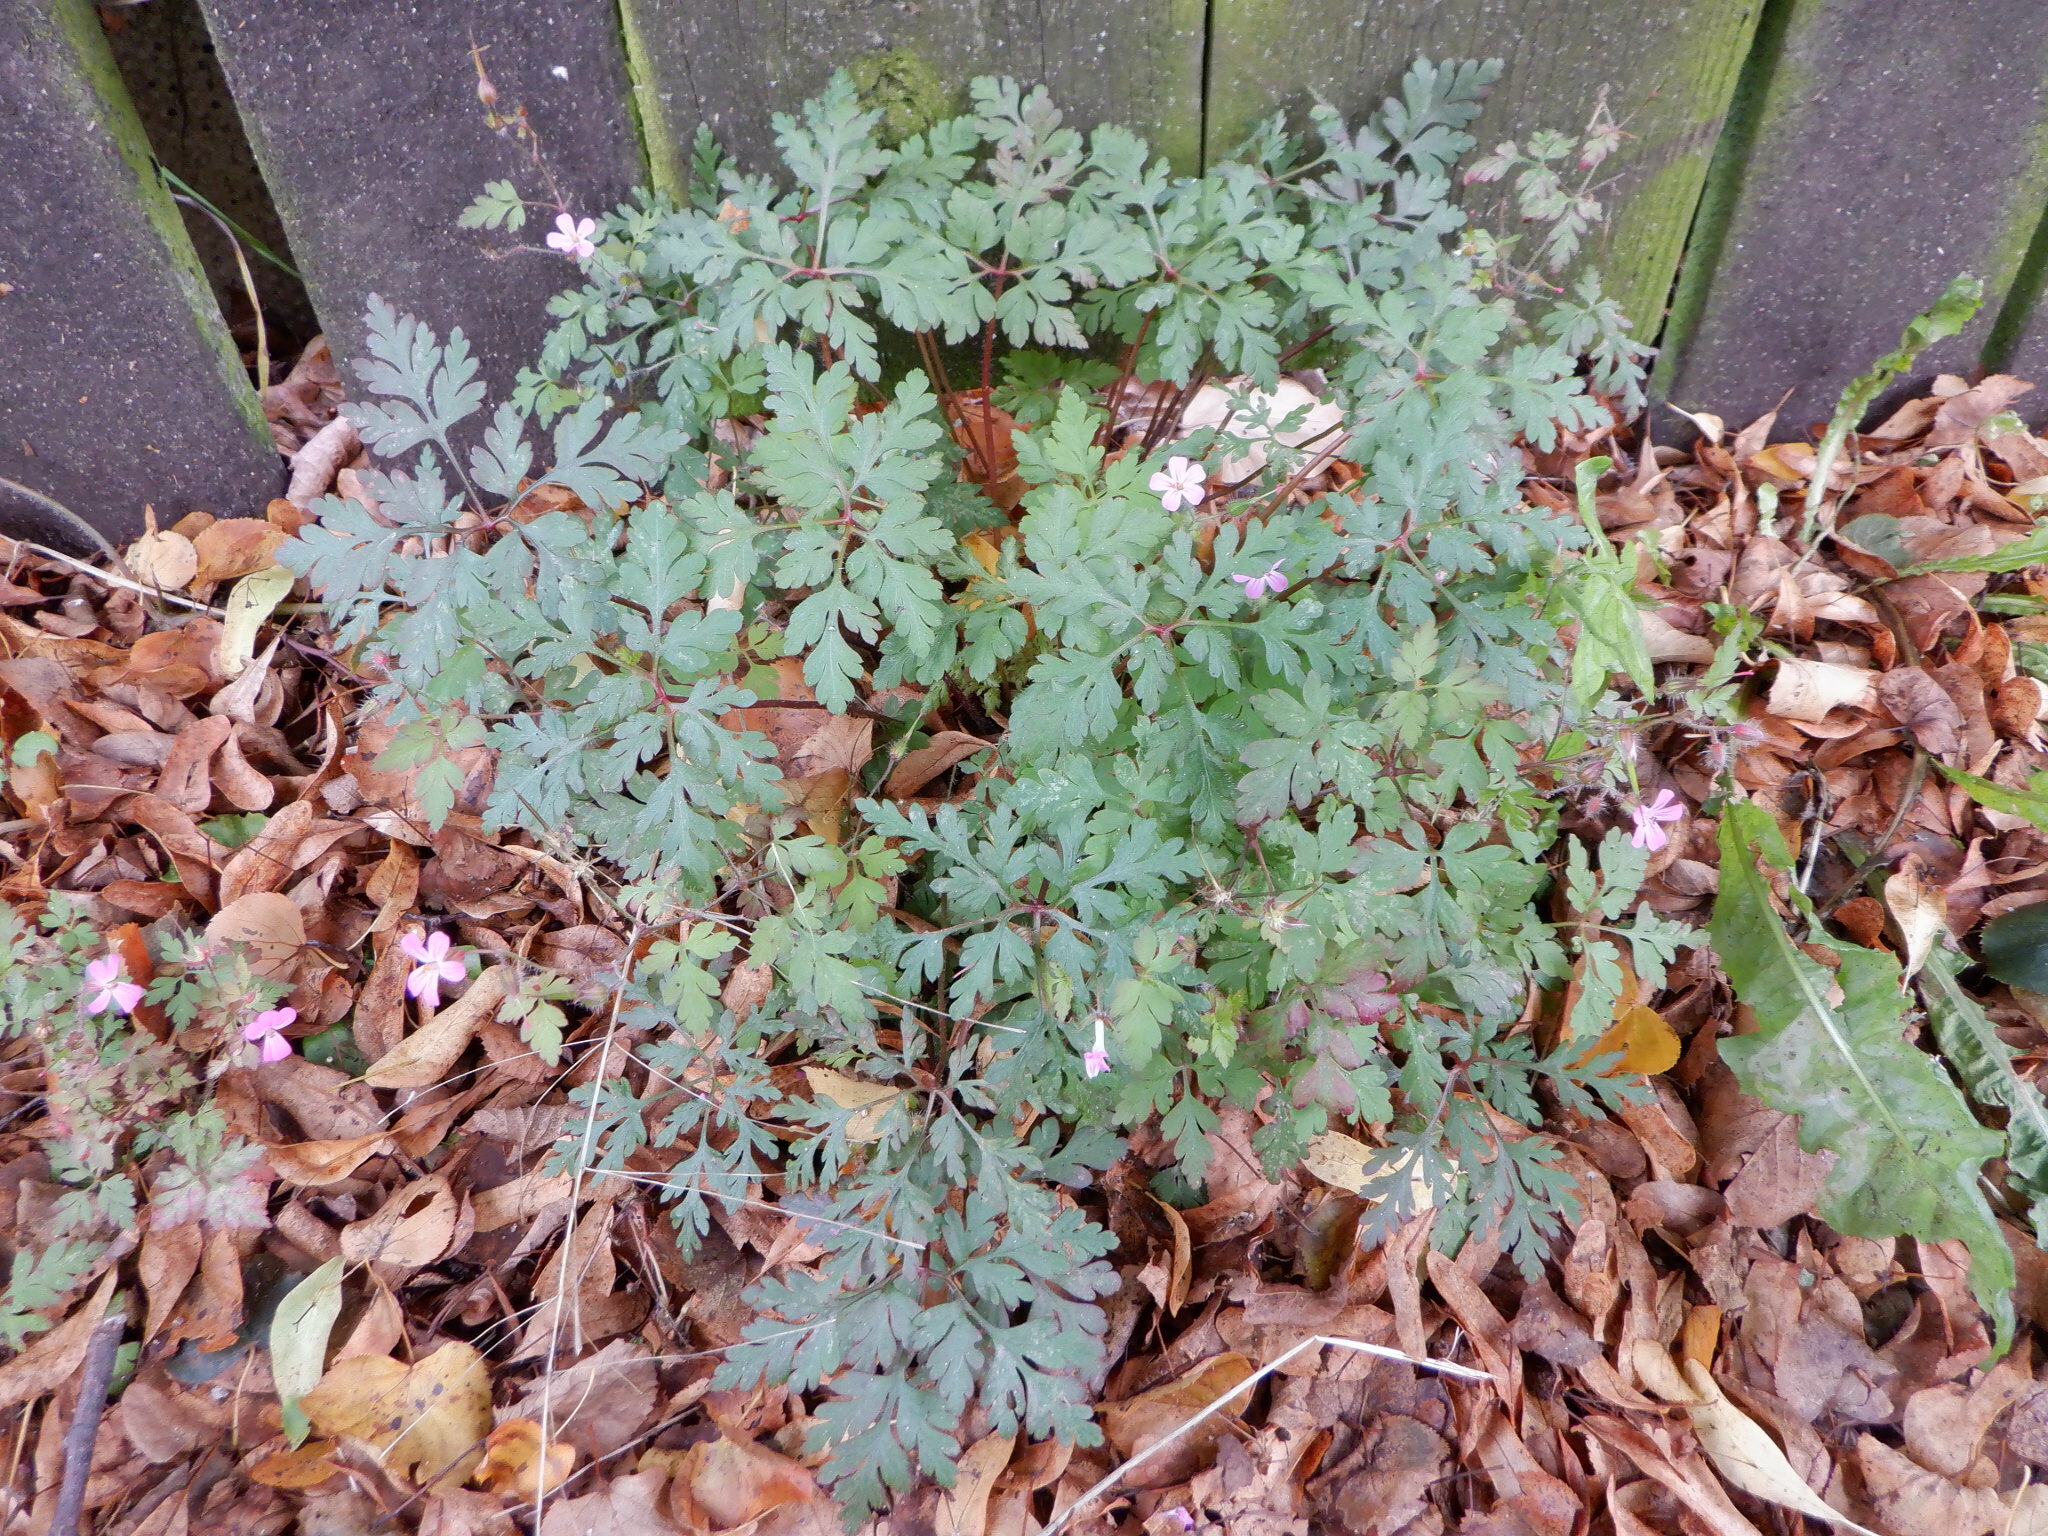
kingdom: Plantae
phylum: Tracheophyta
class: Magnoliopsida
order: Geraniales
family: Geraniaceae
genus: Geranium
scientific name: Geranium robertianum
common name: Herb-robert
